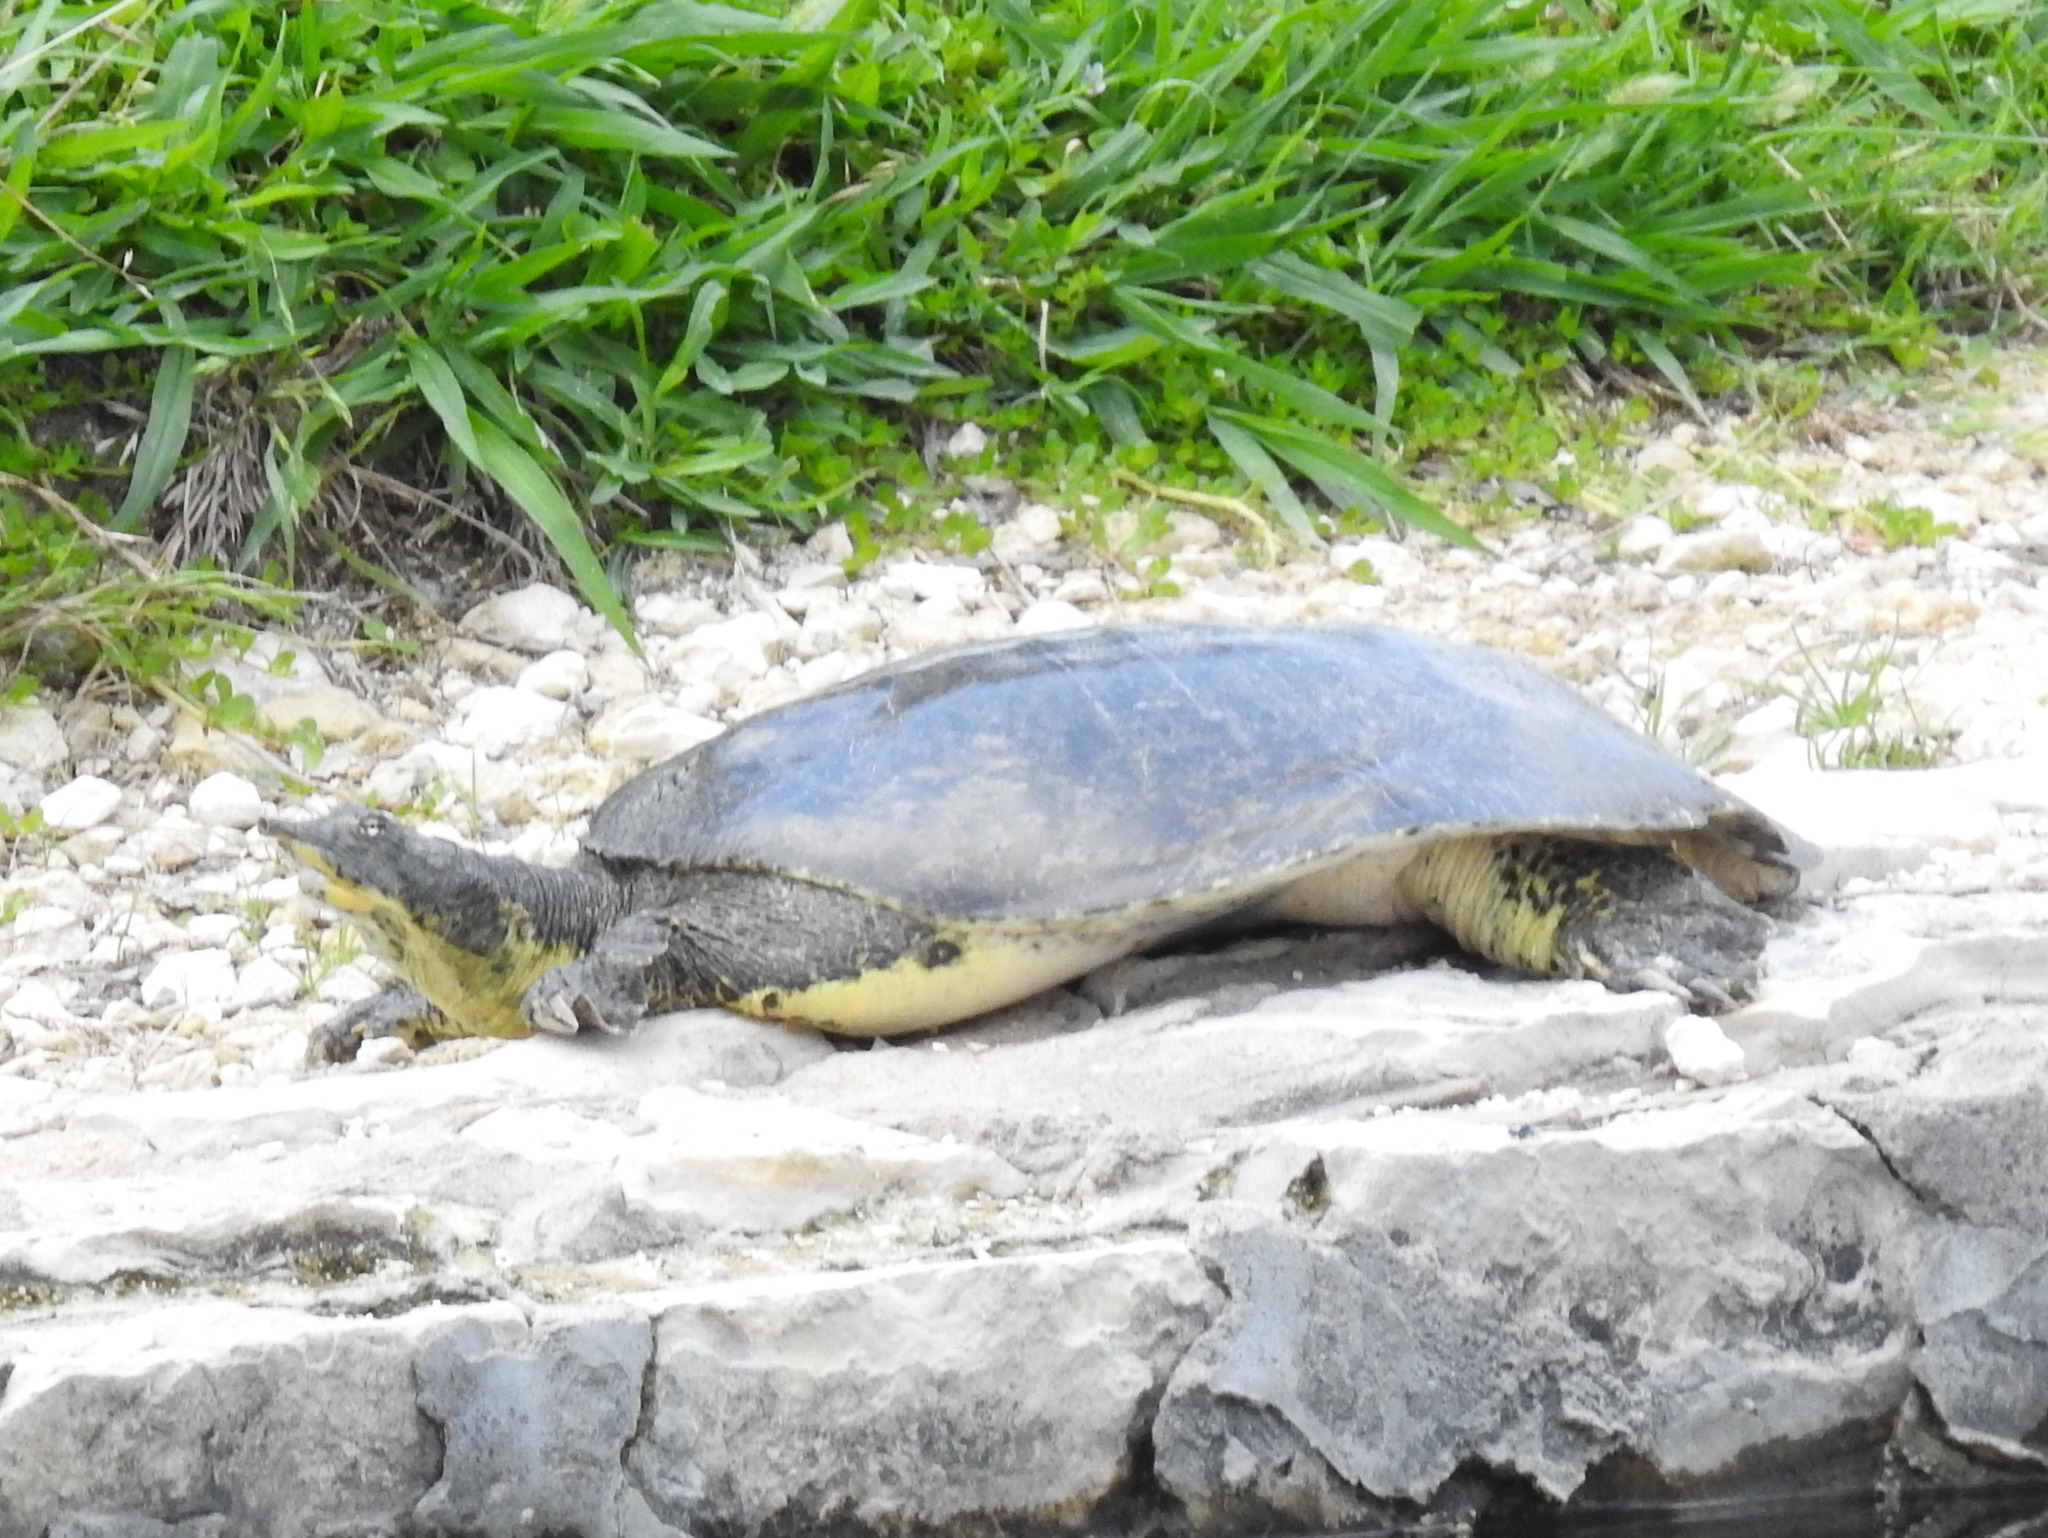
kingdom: Animalia
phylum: Chordata
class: Testudines
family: Trionychidae
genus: Apalone
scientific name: Apalone spinifera
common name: Spiny softshell turtle
